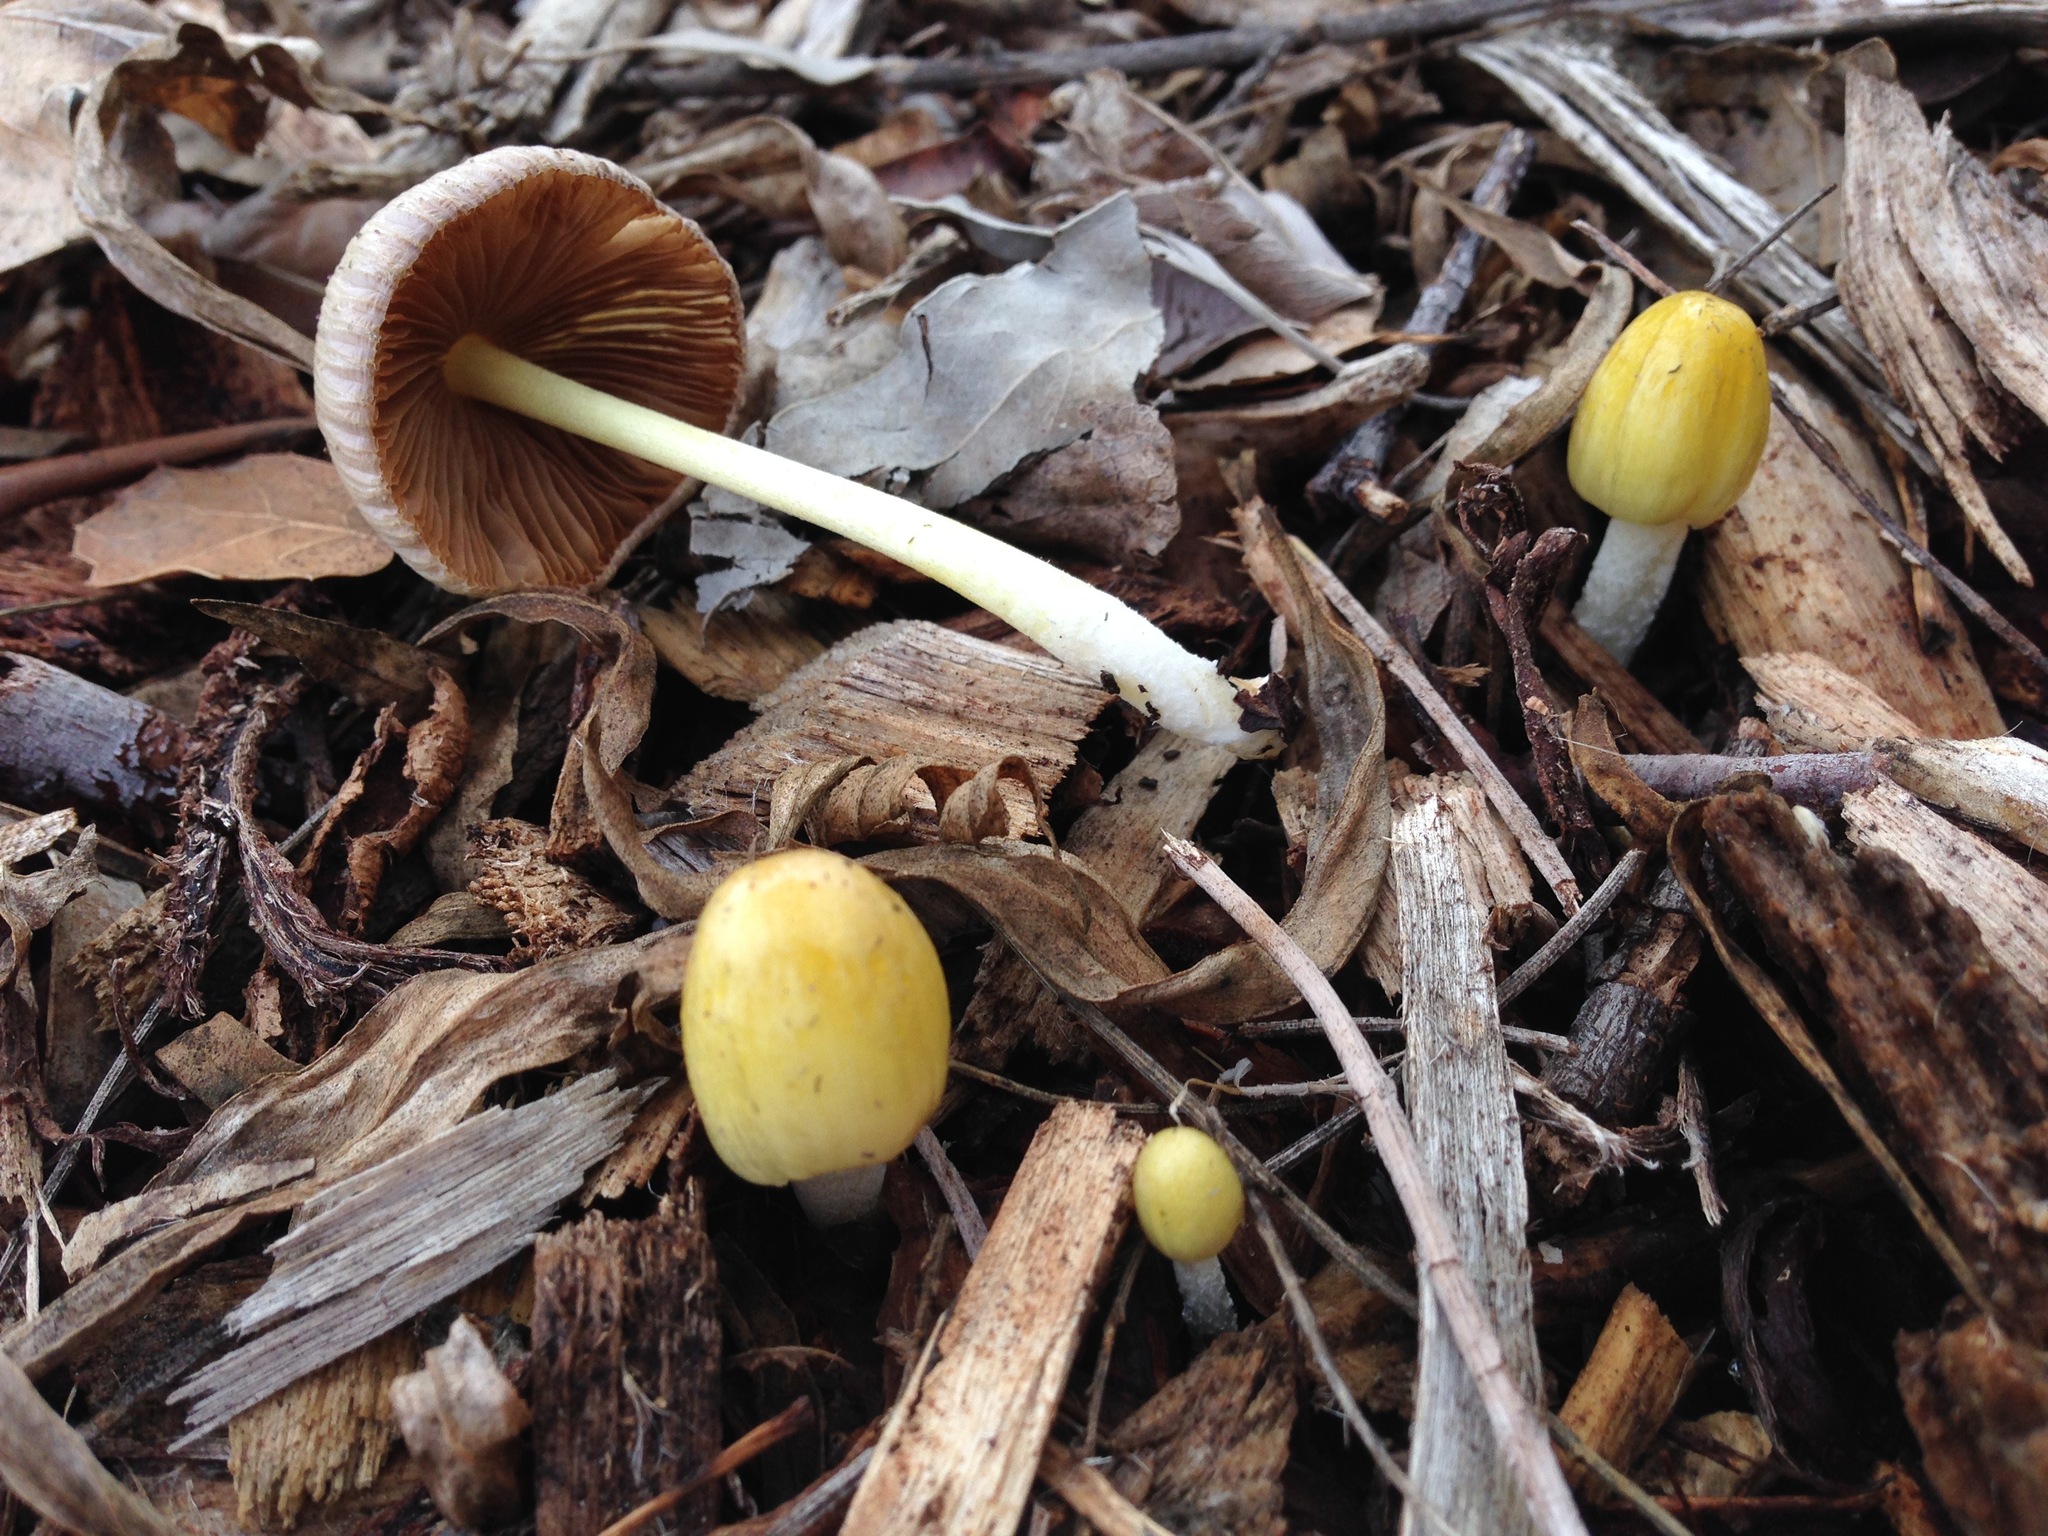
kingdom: Fungi
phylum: Basidiomycota
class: Agaricomycetes
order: Agaricales
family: Bolbitiaceae
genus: Bolbitius
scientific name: Bolbitius titubans
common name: Yellow fieldcap
